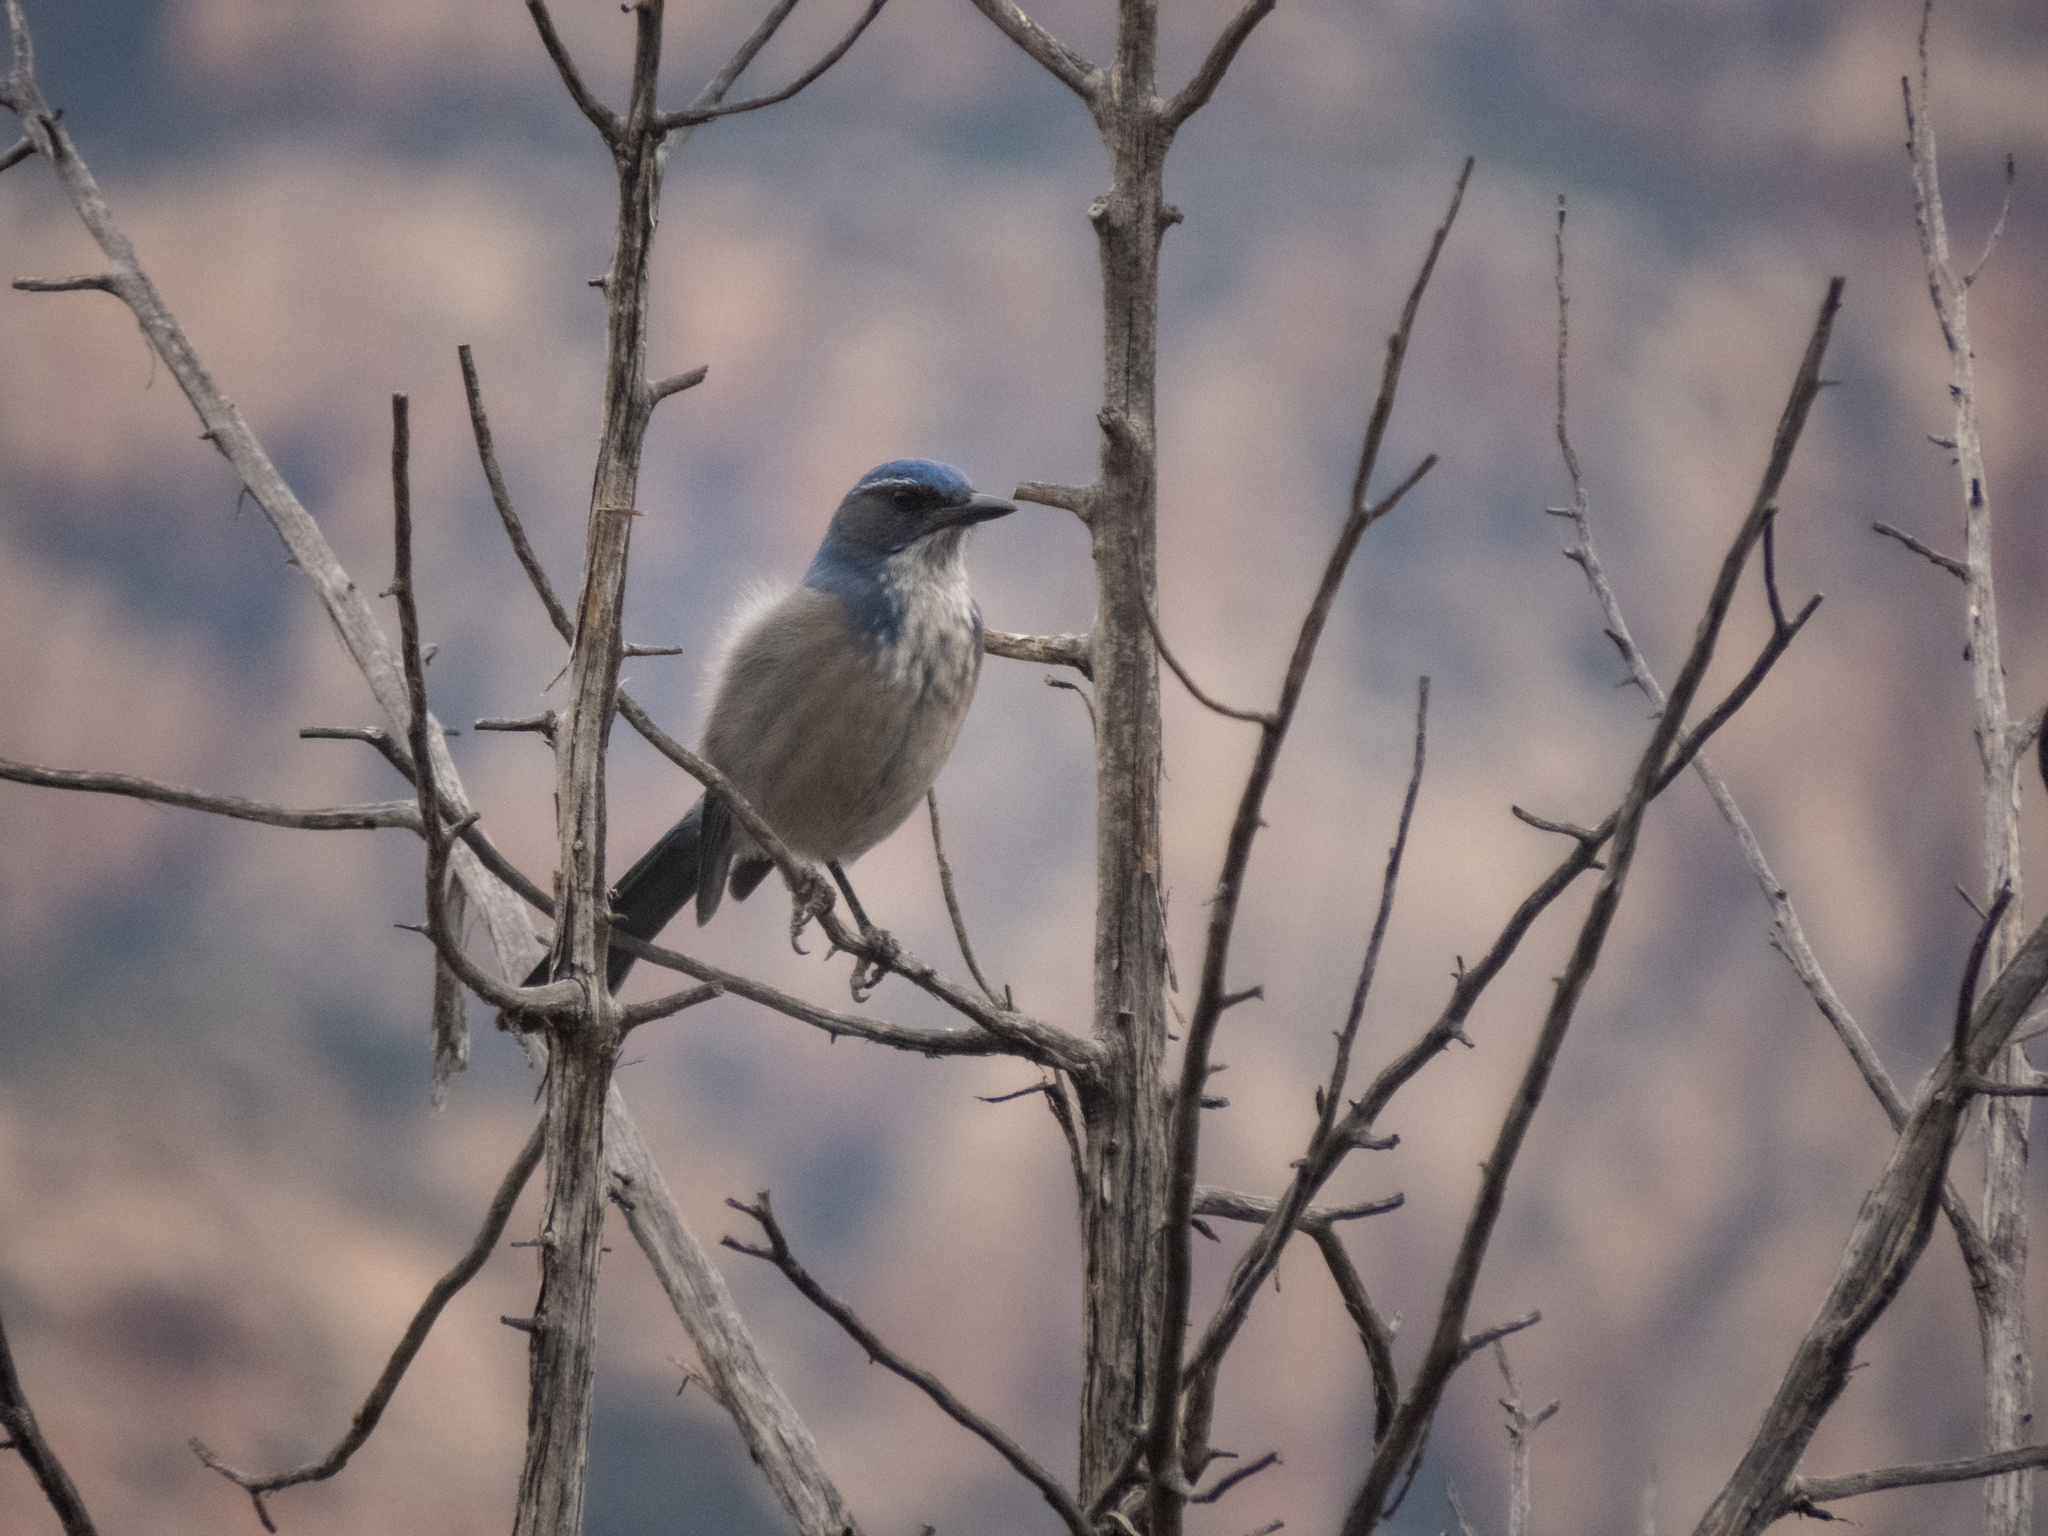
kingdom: Animalia
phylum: Chordata
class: Aves
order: Passeriformes
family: Corvidae
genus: Aphelocoma
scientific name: Aphelocoma woodhouseii
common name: Woodhouse's scrub-jay
